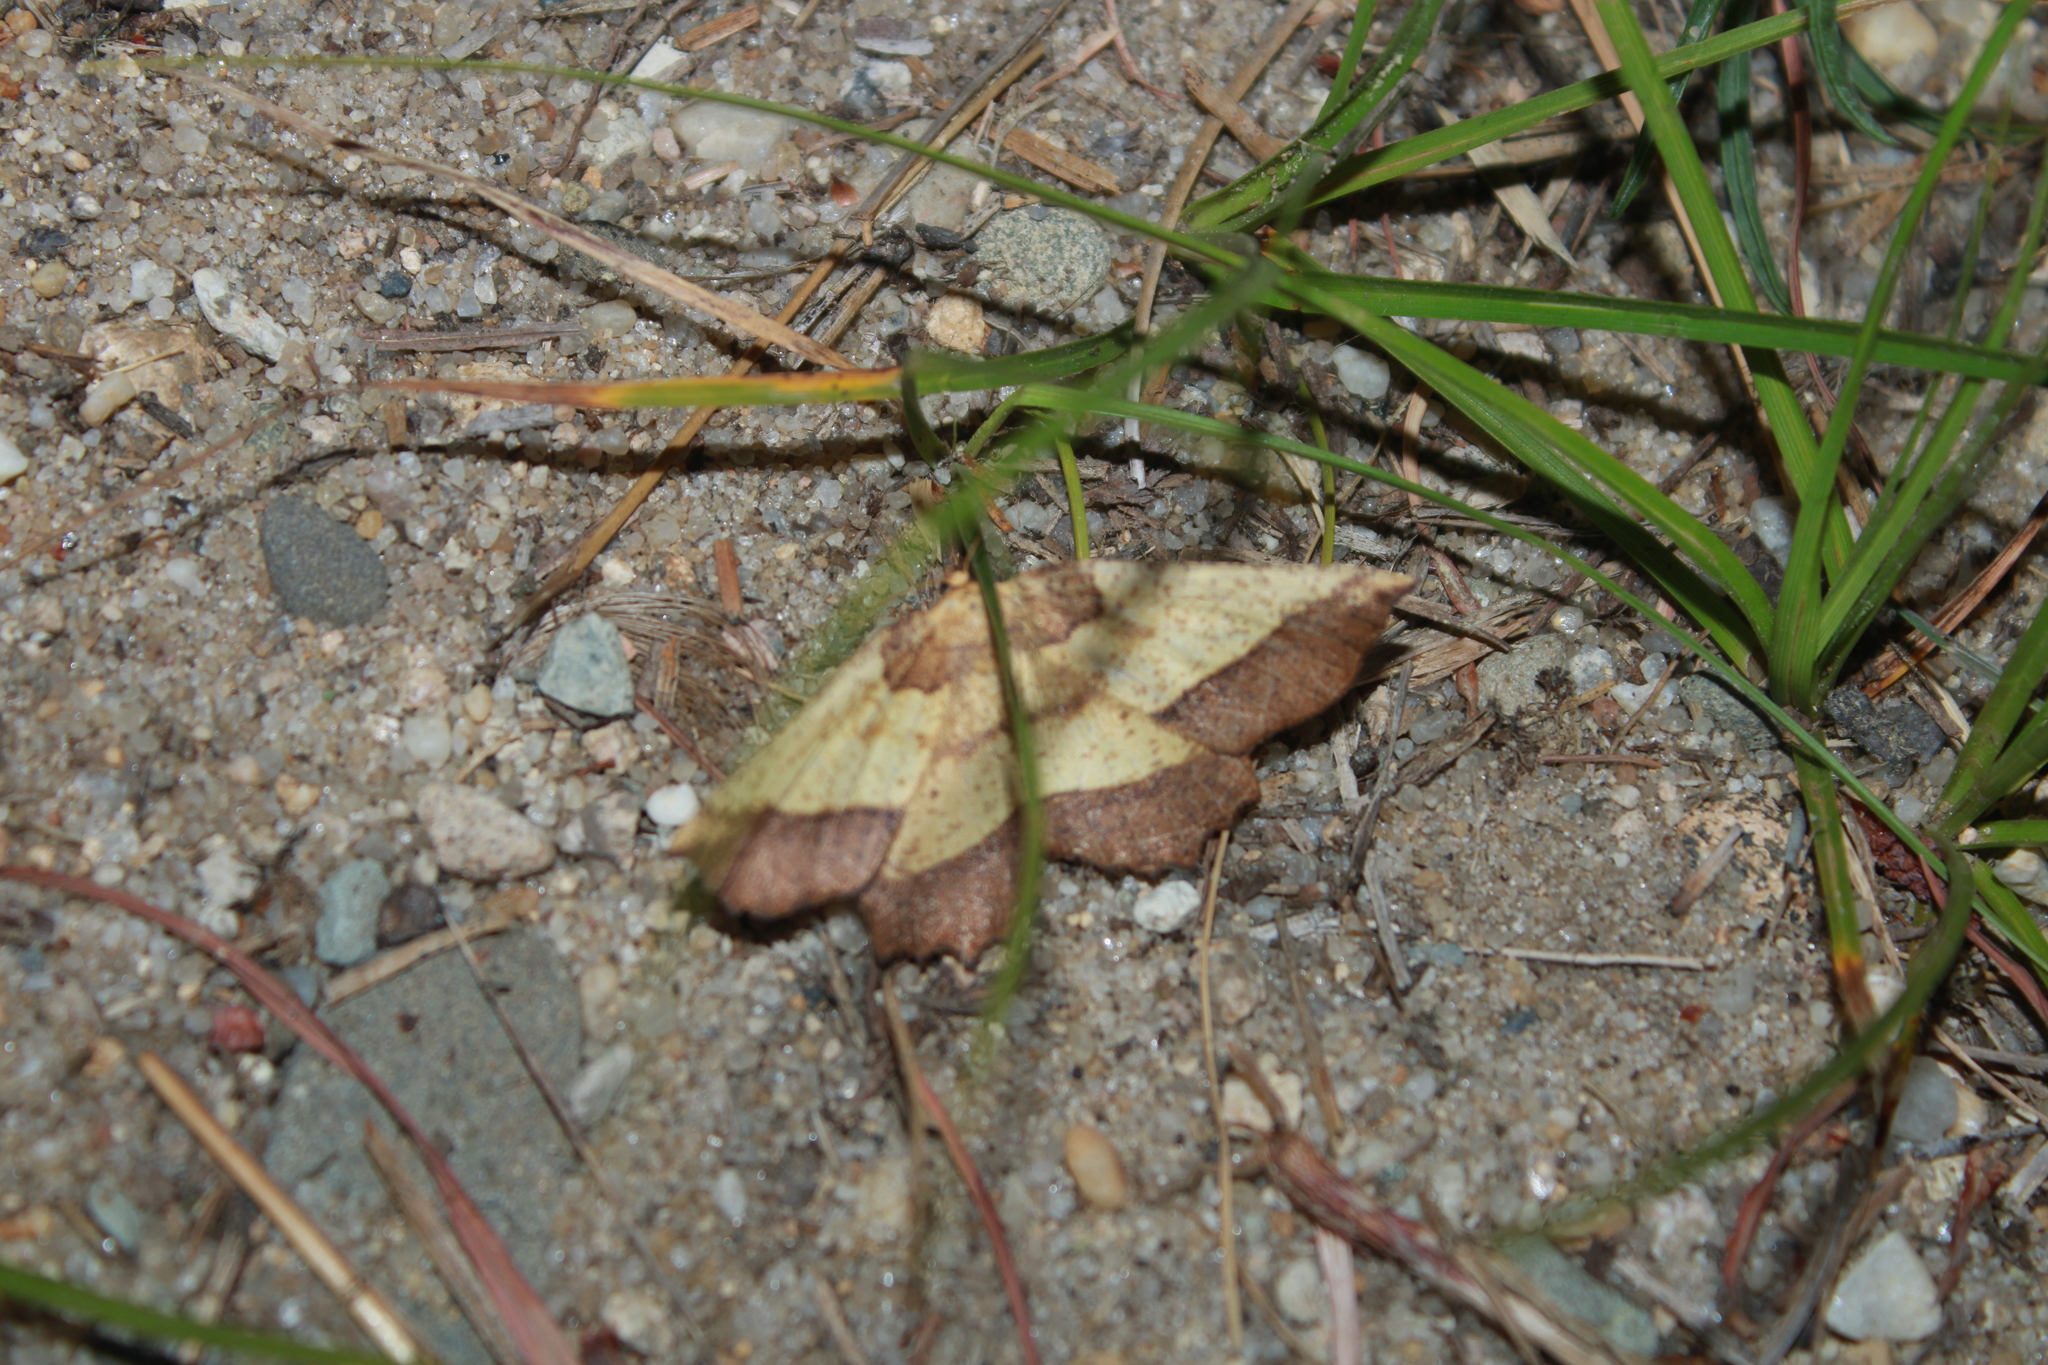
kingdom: Animalia
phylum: Arthropoda
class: Insecta
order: Lepidoptera
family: Geometridae
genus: Euchlaena
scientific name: Euchlaena serrata
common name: Saw wing
